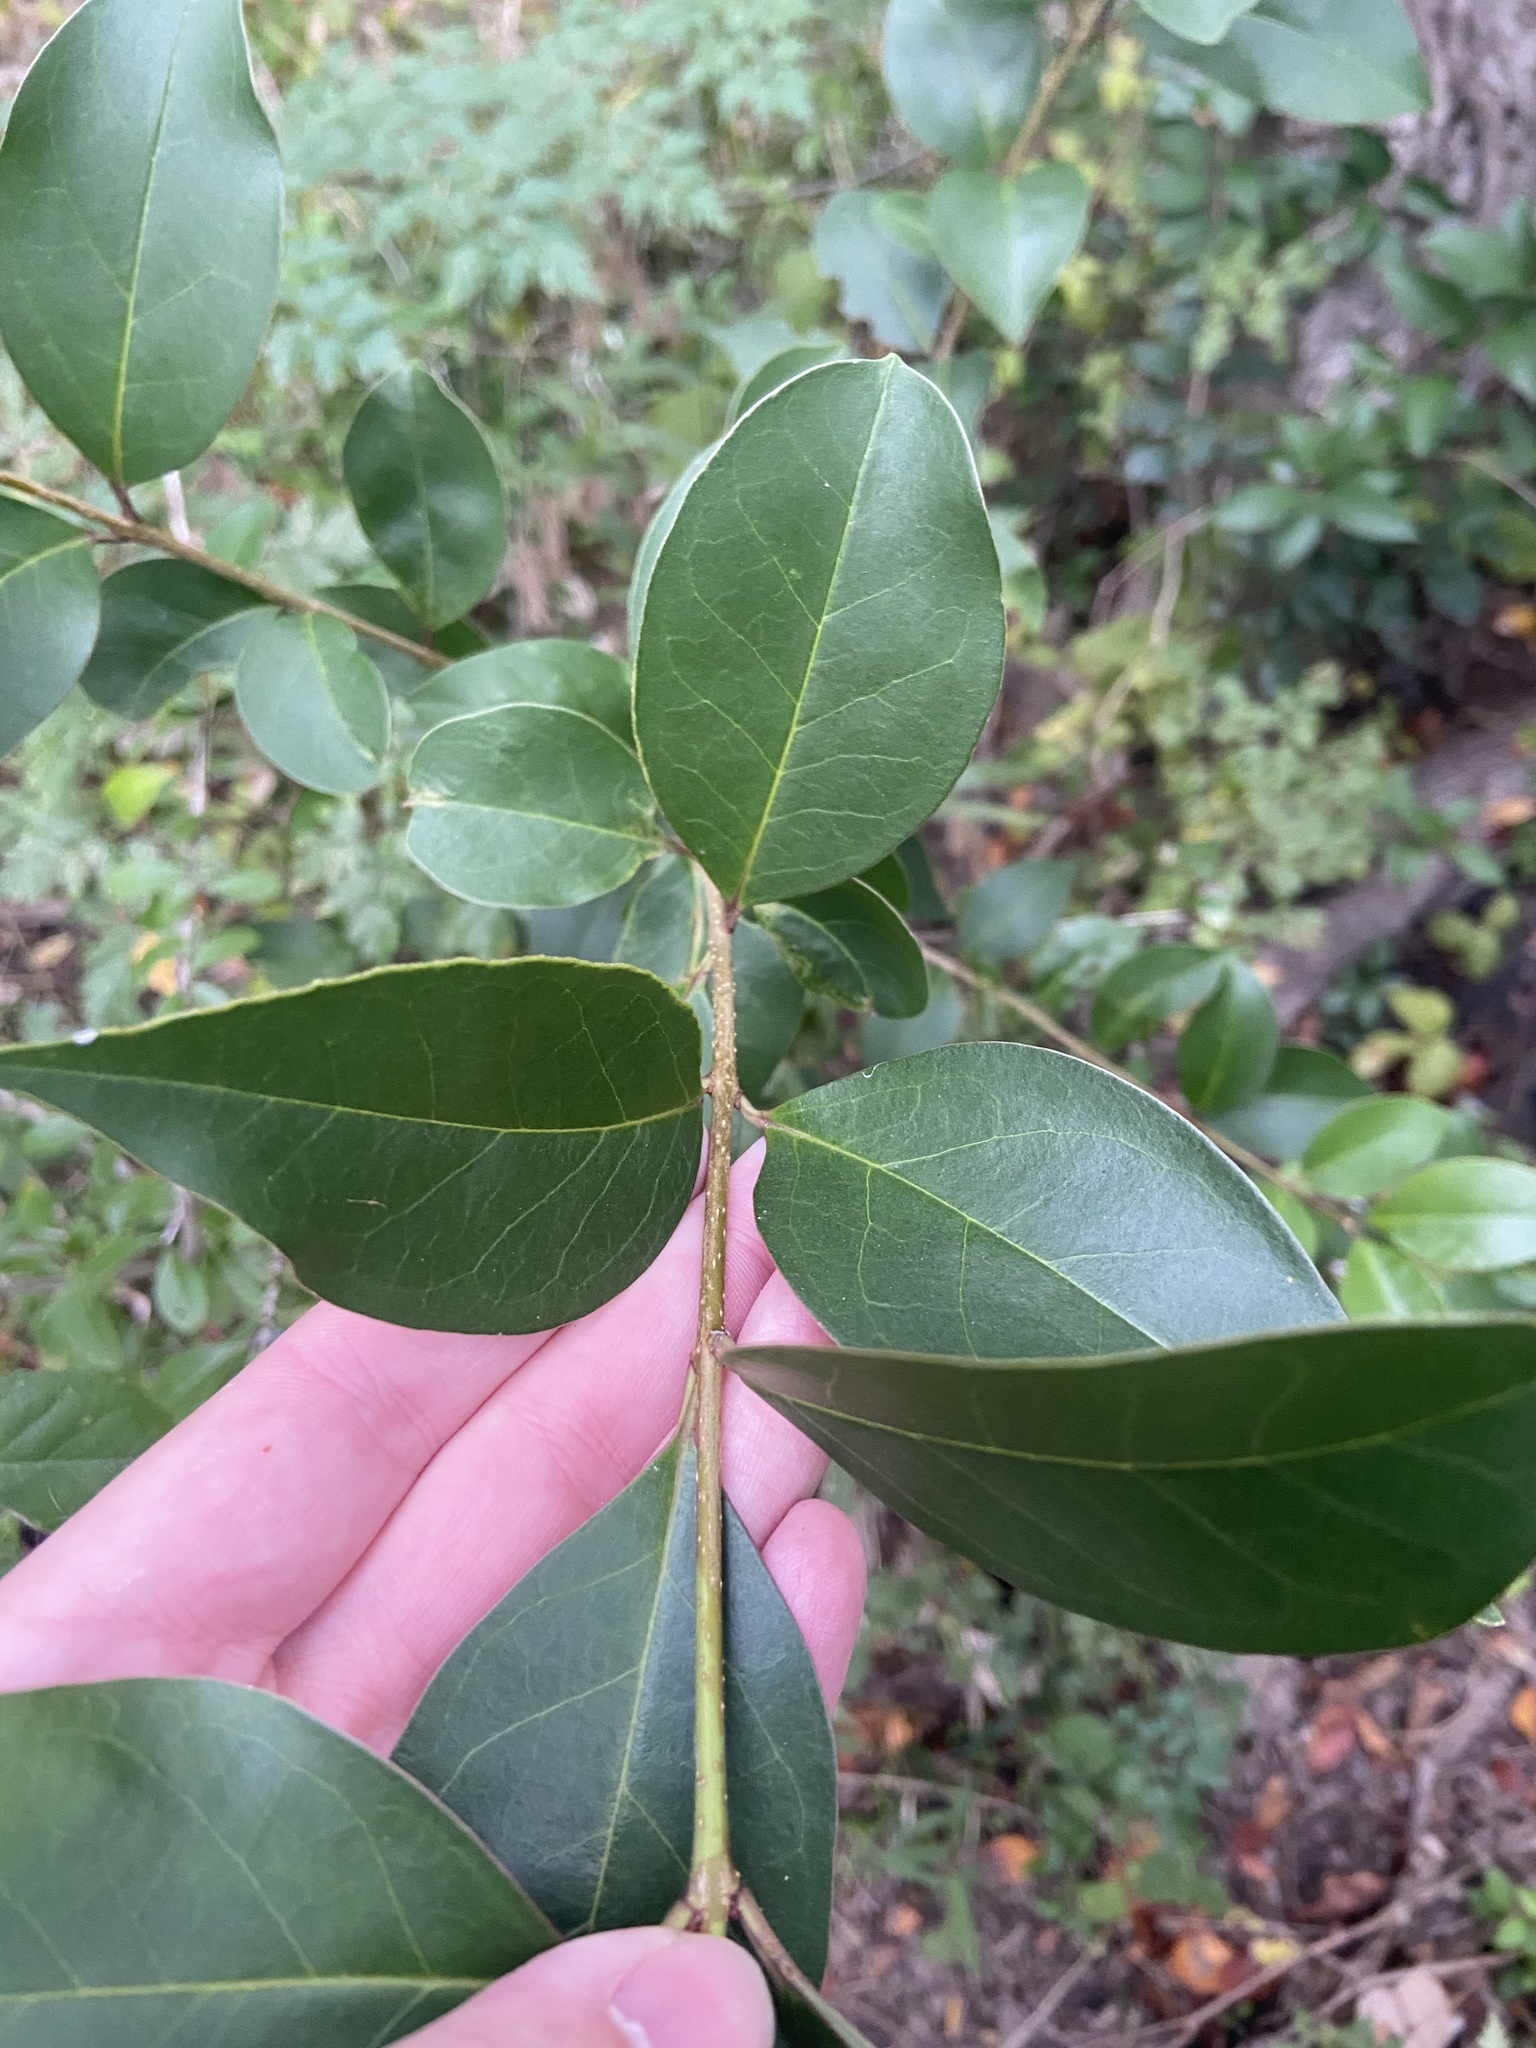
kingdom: Plantae
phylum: Tracheophyta
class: Magnoliopsida
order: Lamiales
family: Oleaceae
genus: Ligustrum
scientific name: Ligustrum lucidum
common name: Glossy privet
